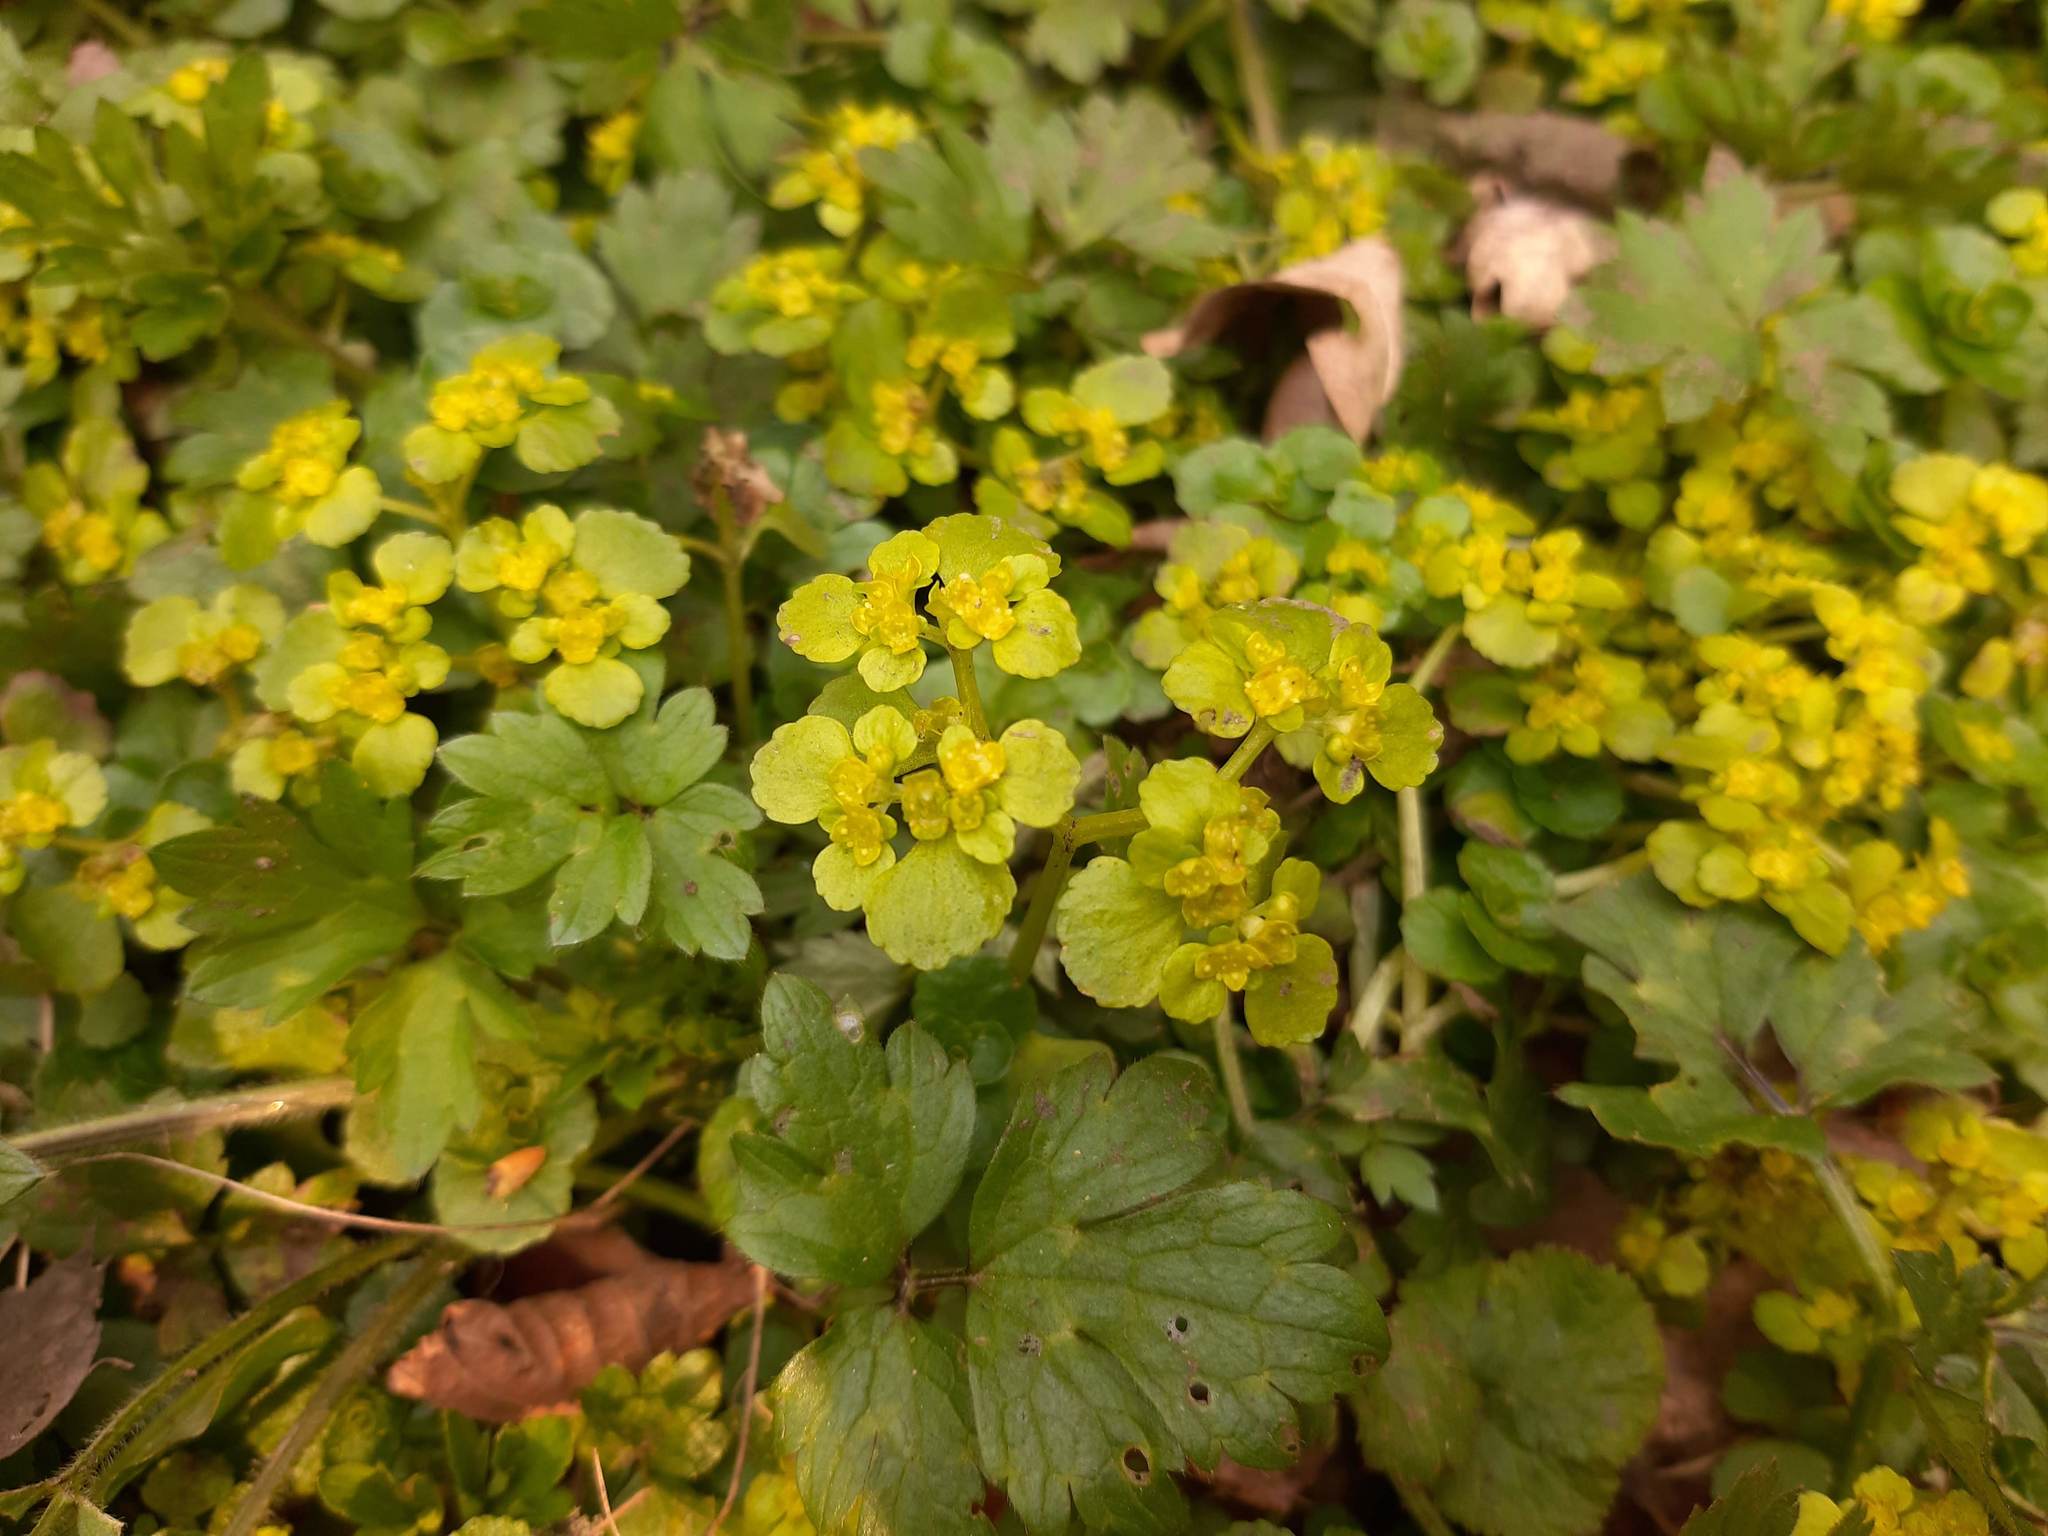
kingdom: Plantae
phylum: Tracheophyta
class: Magnoliopsida
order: Saxifragales
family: Saxifragaceae
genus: Chrysosplenium
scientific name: Chrysosplenium oppositifolium
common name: Opposite-leaved golden-saxifrage
